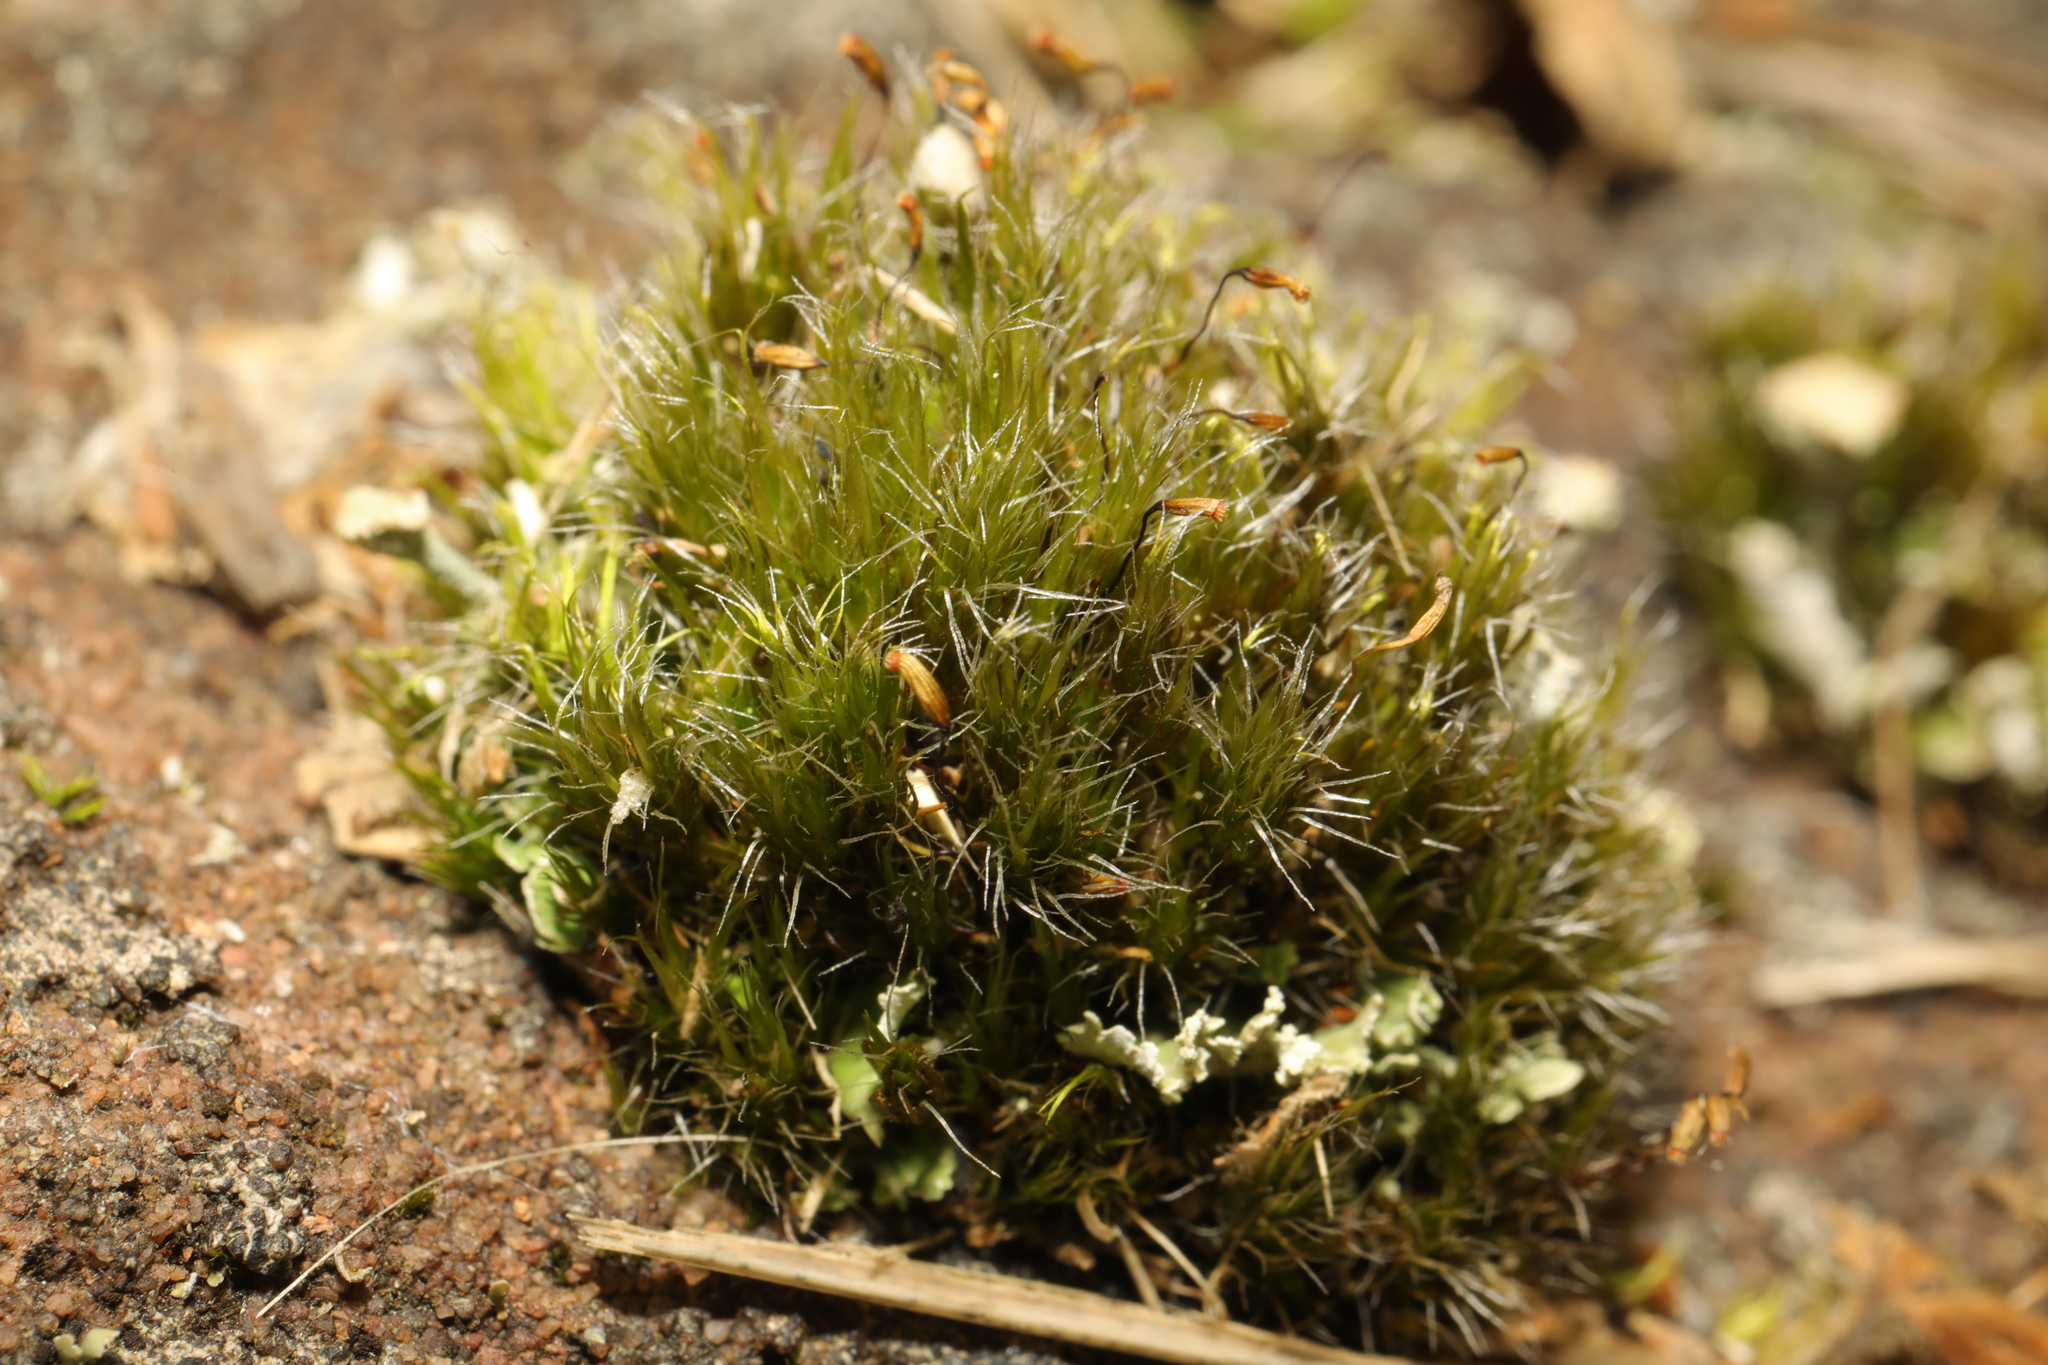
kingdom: Plantae
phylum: Bryophyta
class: Bryopsida
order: Dicranales
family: Leucobryaceae
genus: Campylopus
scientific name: Campylopus introflexus
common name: Heath star moss
